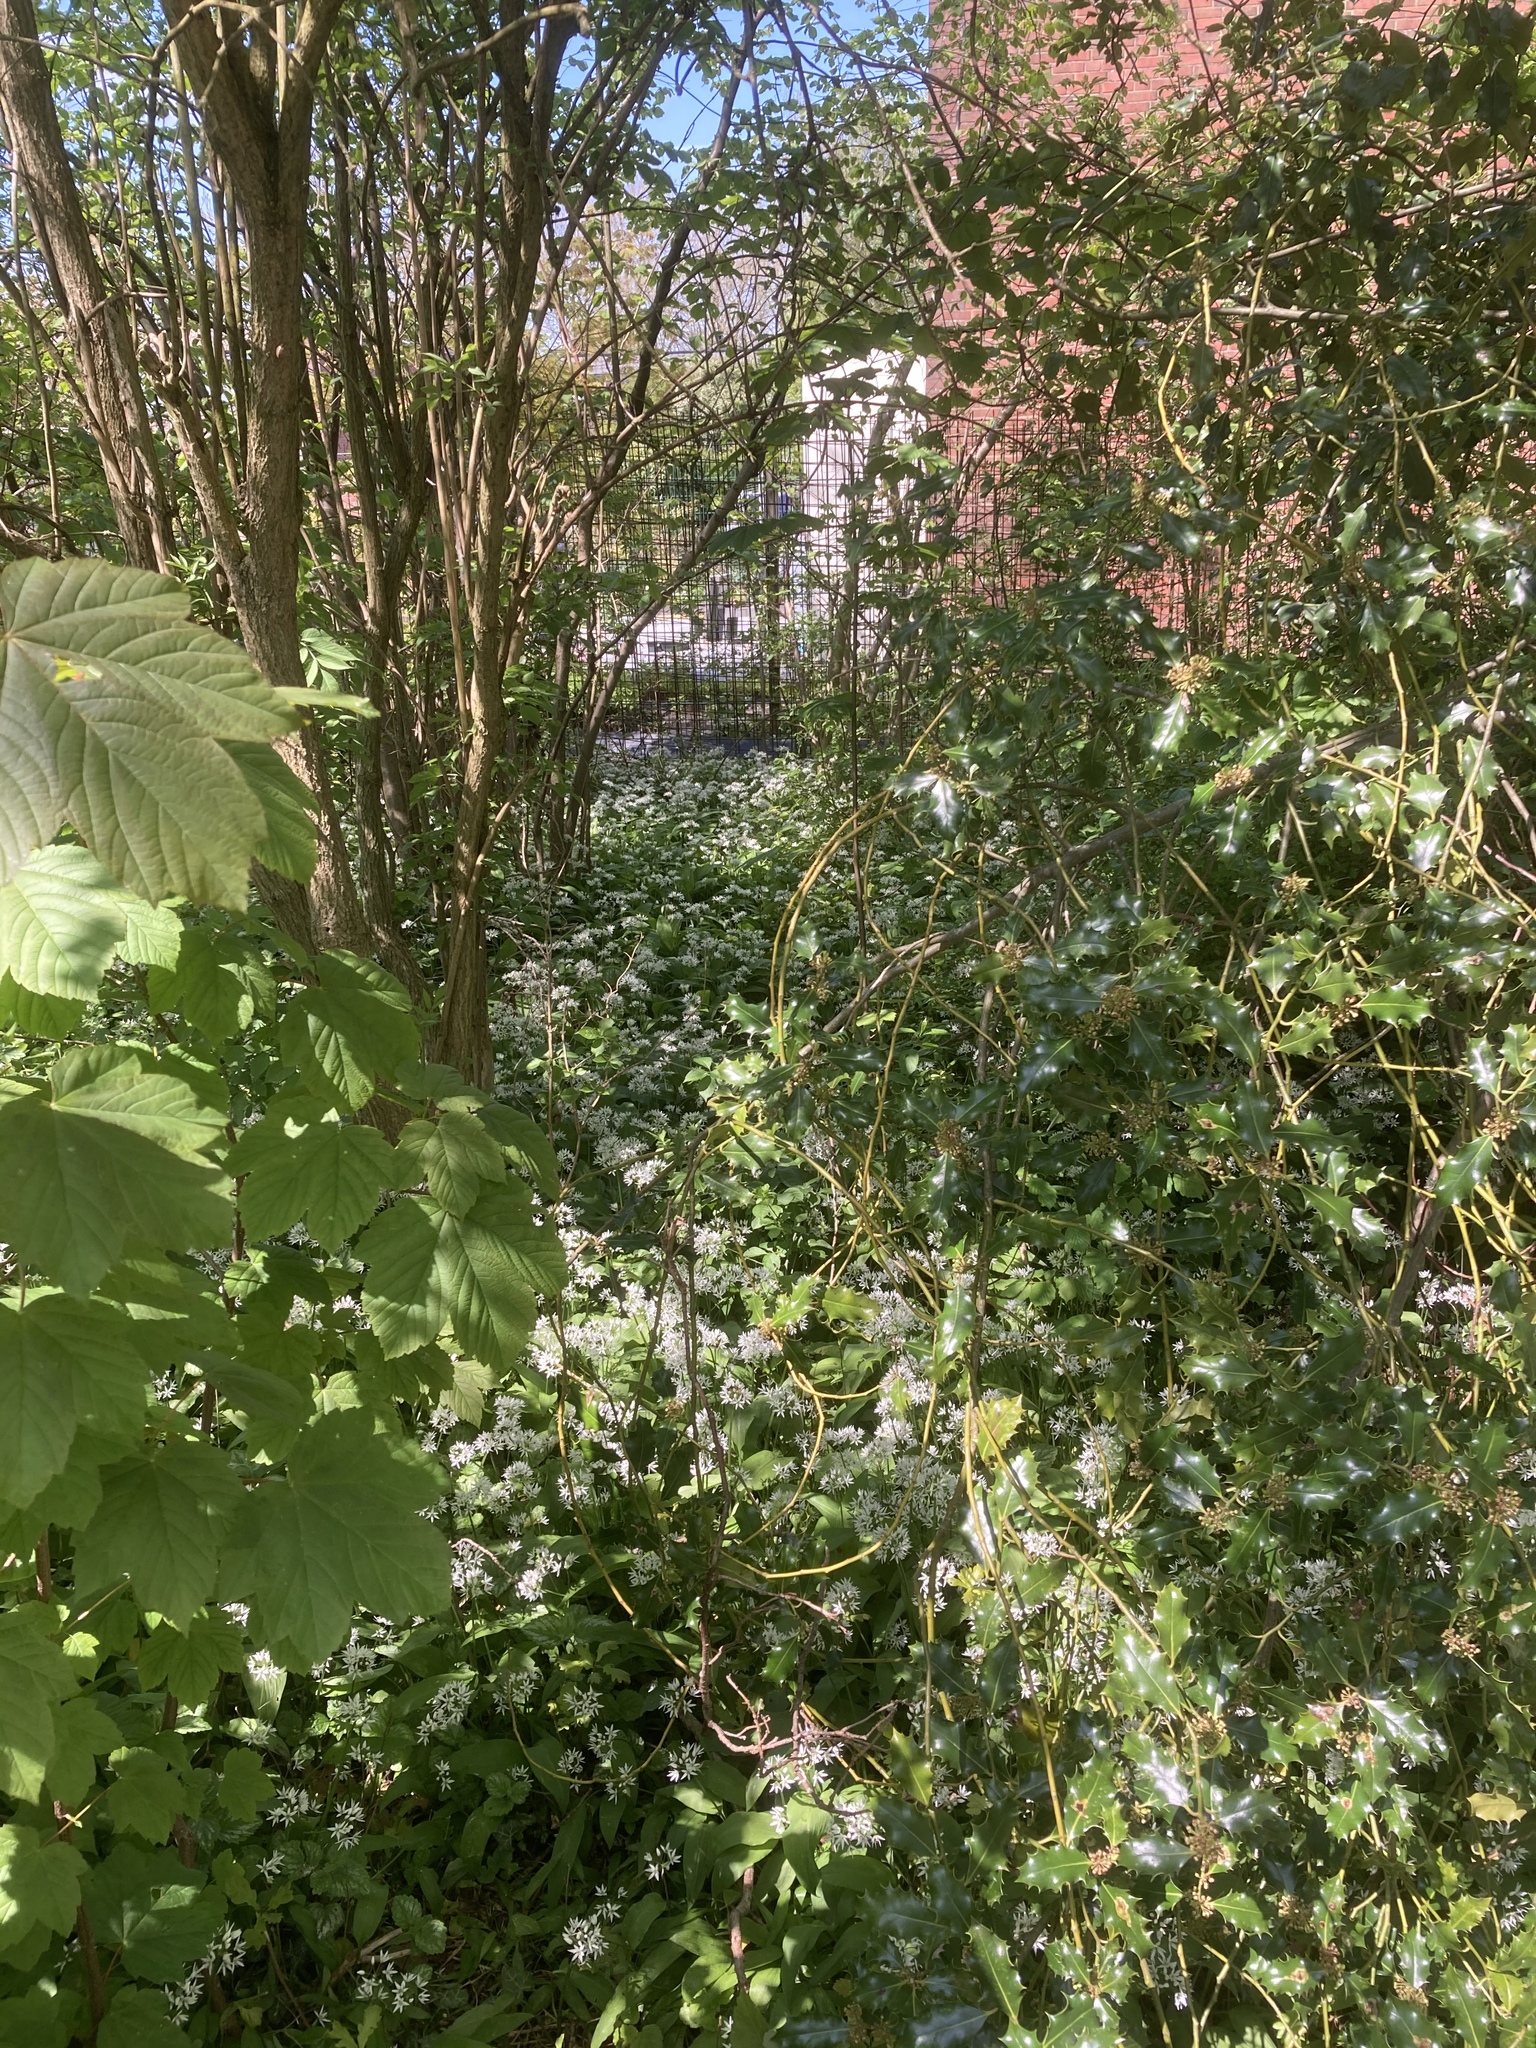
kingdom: Plantae
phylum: Tracheophyta
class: Liliopsida
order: Asparagales
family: Amaryllidaceae
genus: Allium
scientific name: Allium ursinum
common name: Ramsons
